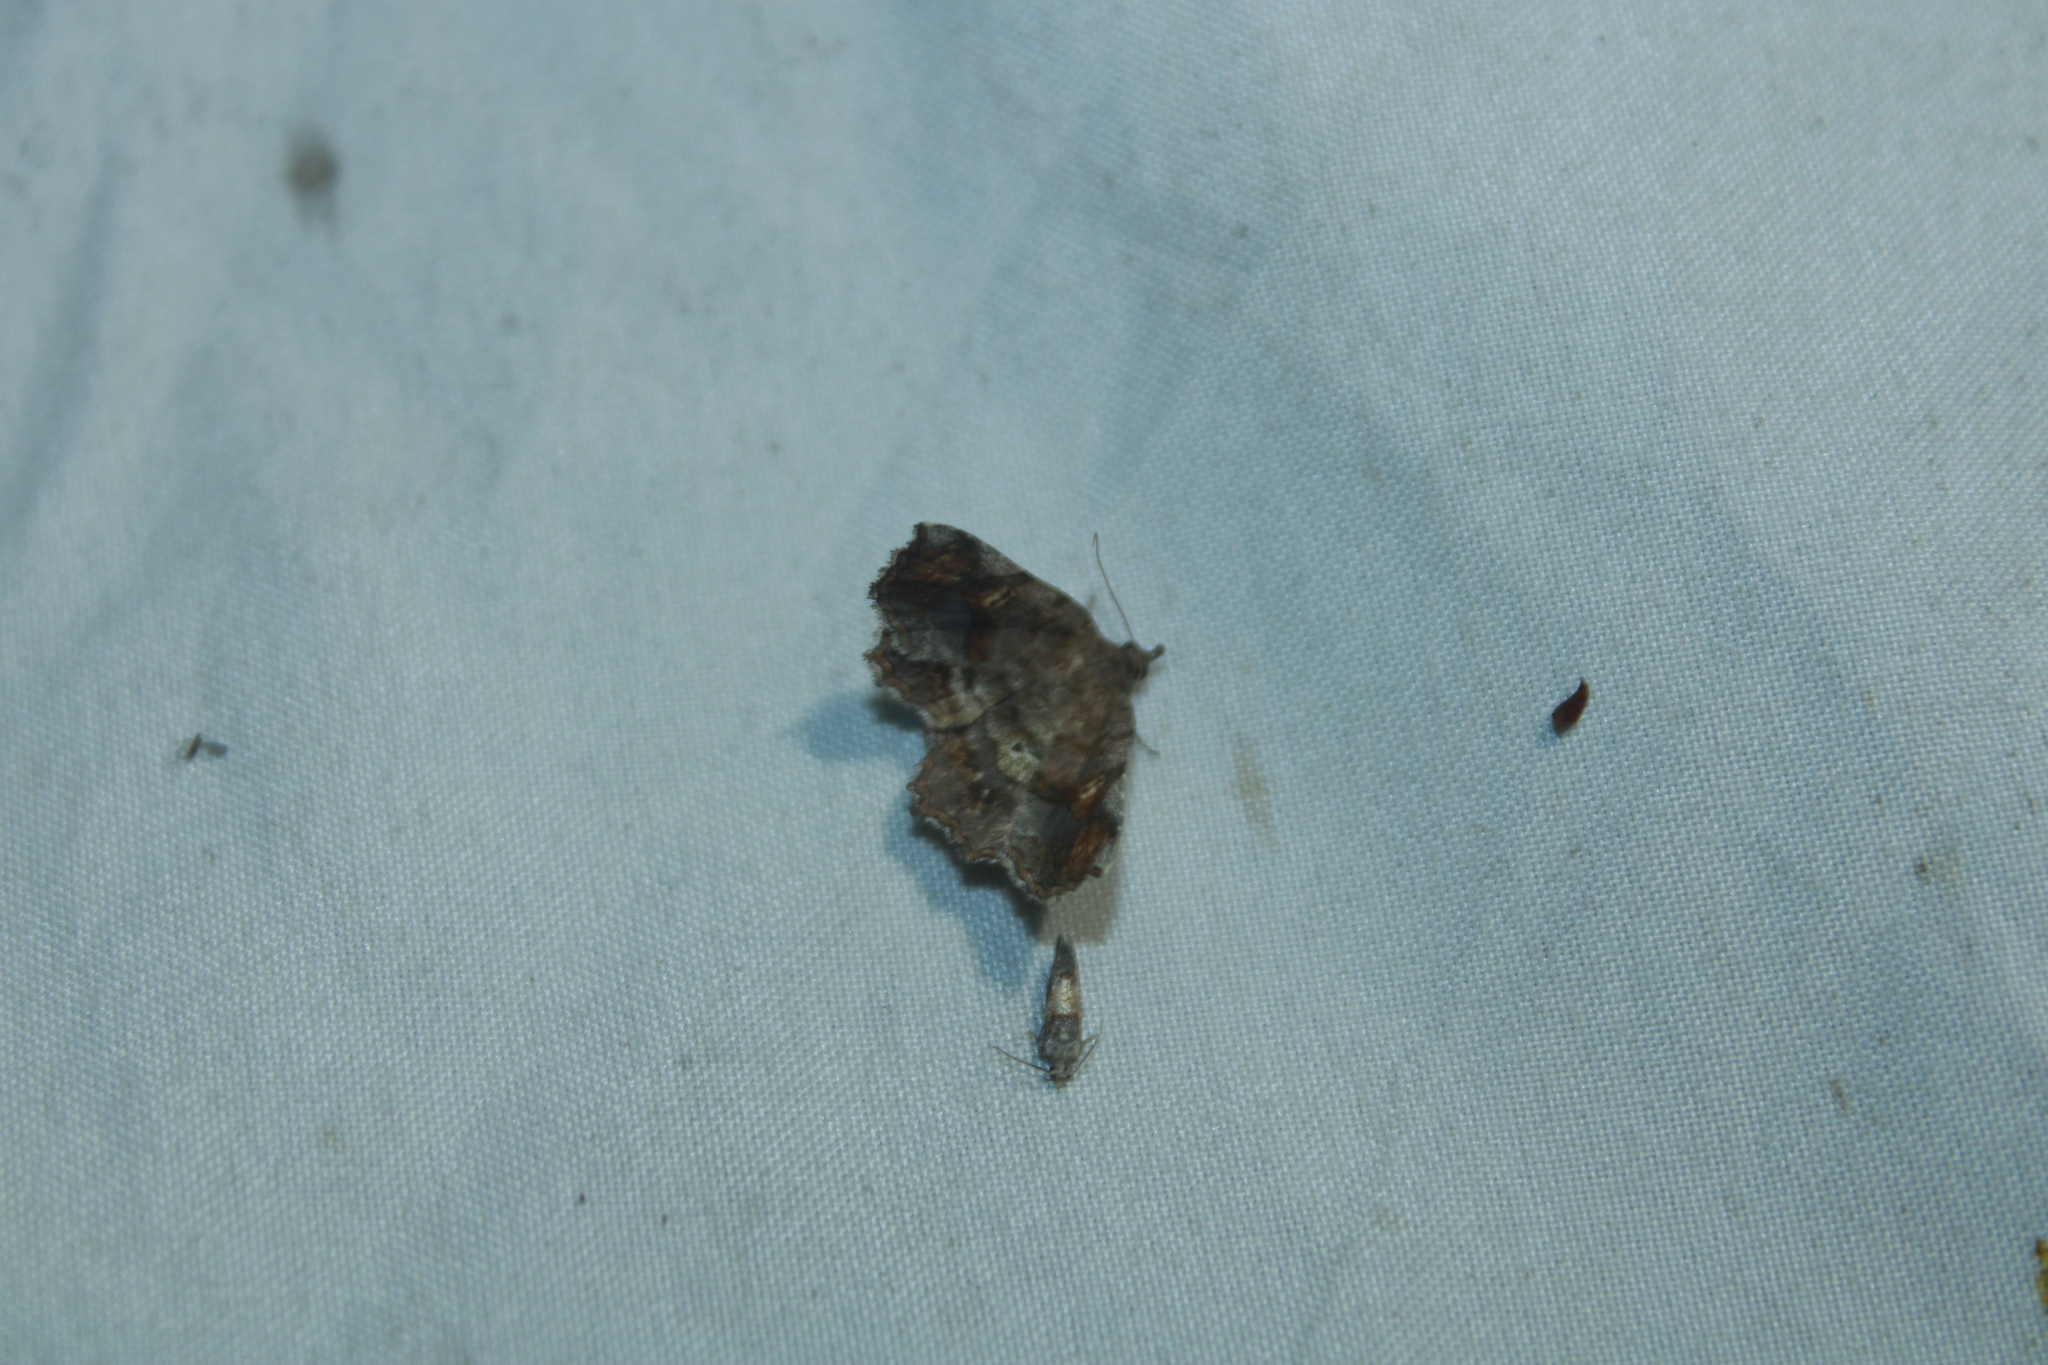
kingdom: Animalia
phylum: Arthropoda
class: Insecta
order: Lepidoptera
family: Erebidae
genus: Pangrapta
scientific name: Pangrapta decoralis
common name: Decorated owlet
